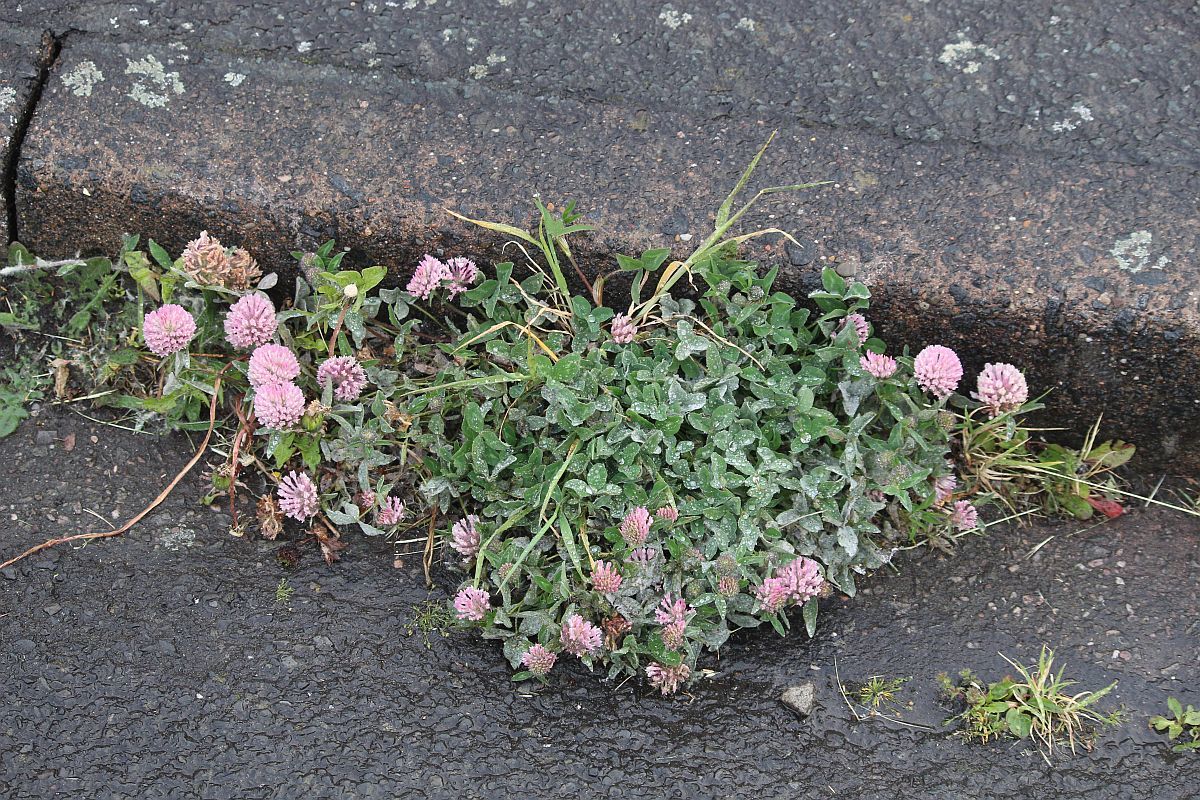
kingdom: Plantae
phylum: Tracheophyta
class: Magnoliopsida
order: Fabales
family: Fabaceae
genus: Trifolium
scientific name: Trifolium pratense
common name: Red clover
